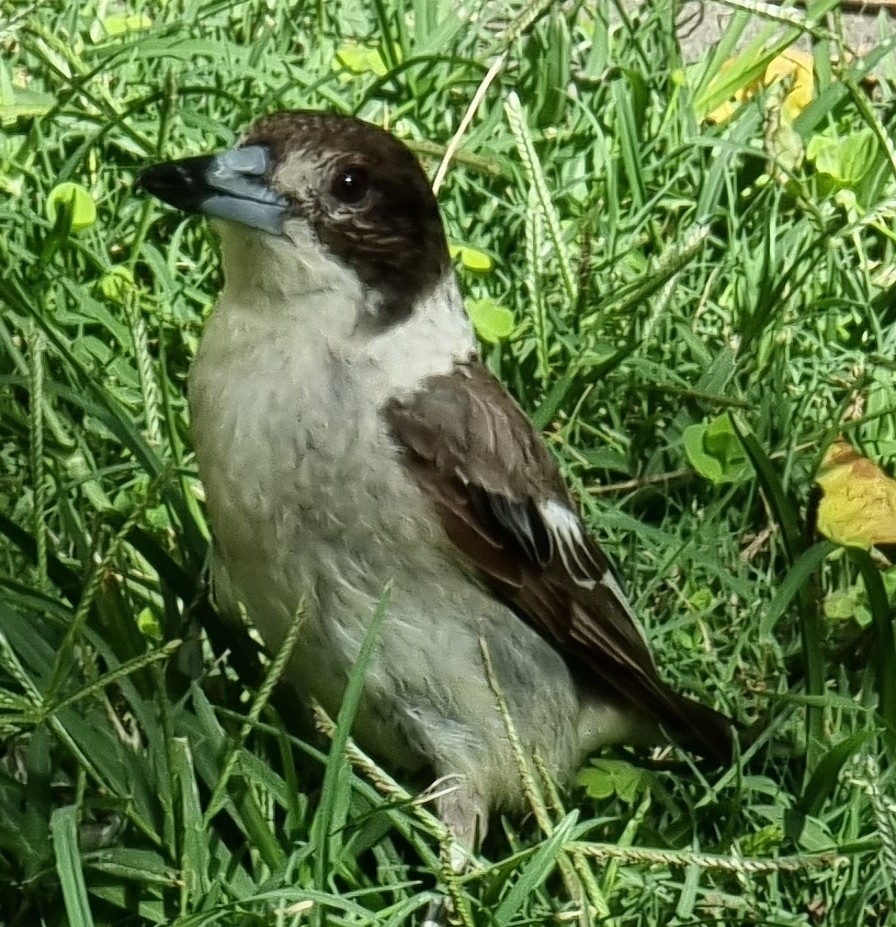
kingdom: Animalia
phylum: Chordata
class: Aves
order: Passeriformes
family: Cracticidae
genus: Cracticus
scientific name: Cracticus torquatus
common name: Grey butcherbird
